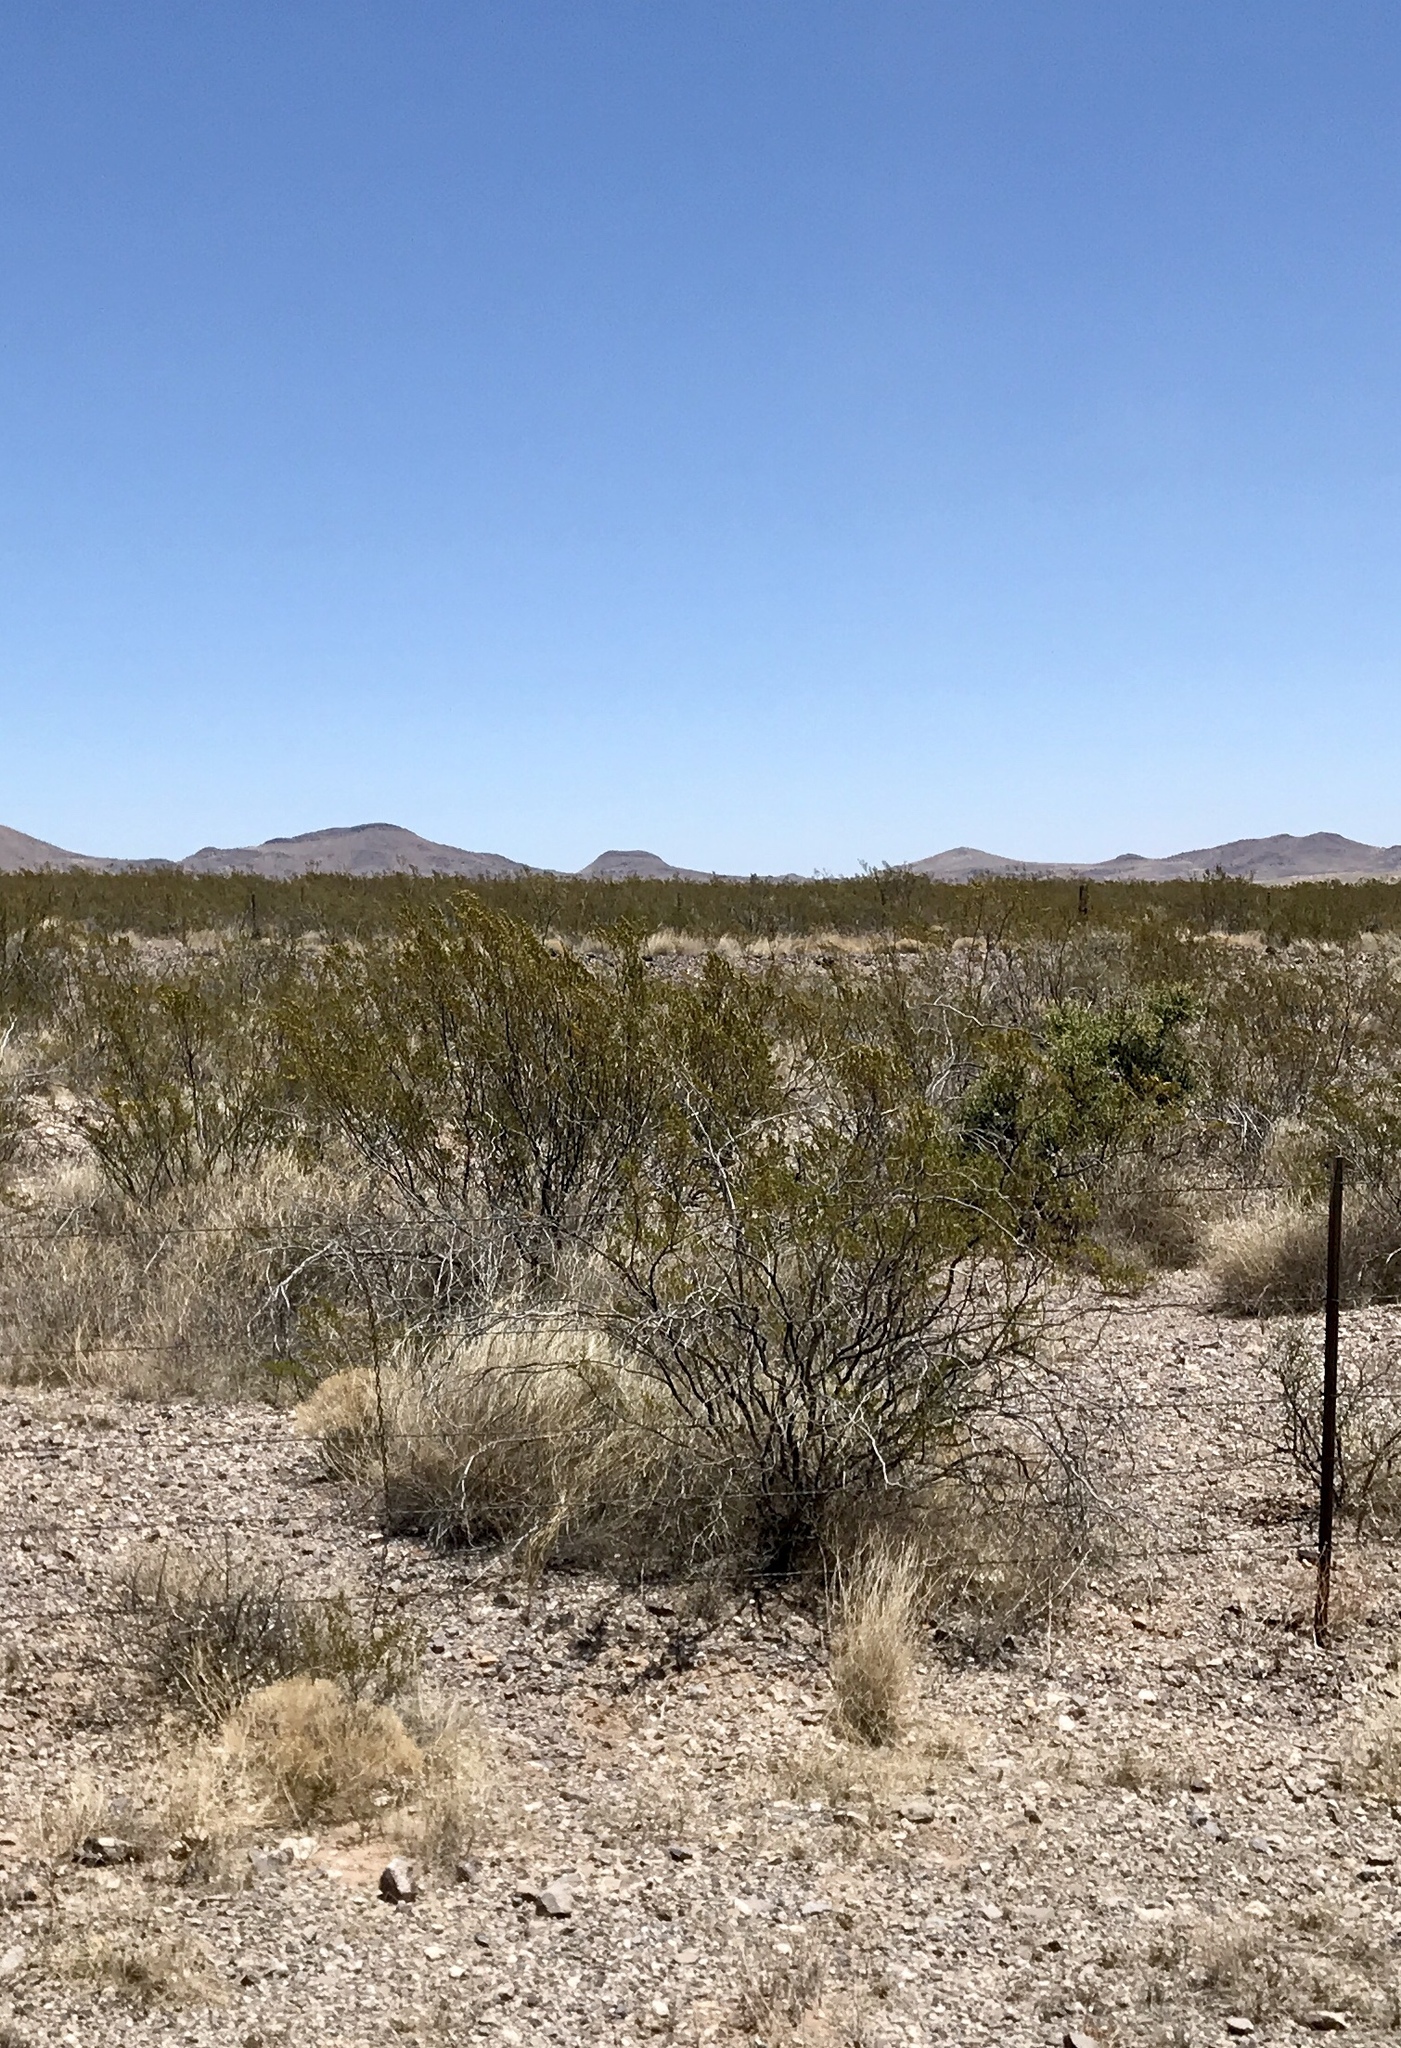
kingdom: Plantae
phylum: Tracheophyta
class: Magnoliopsida
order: Zygophyllales
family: Zygophyllaceae
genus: Larrea
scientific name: Larrea tridentata
